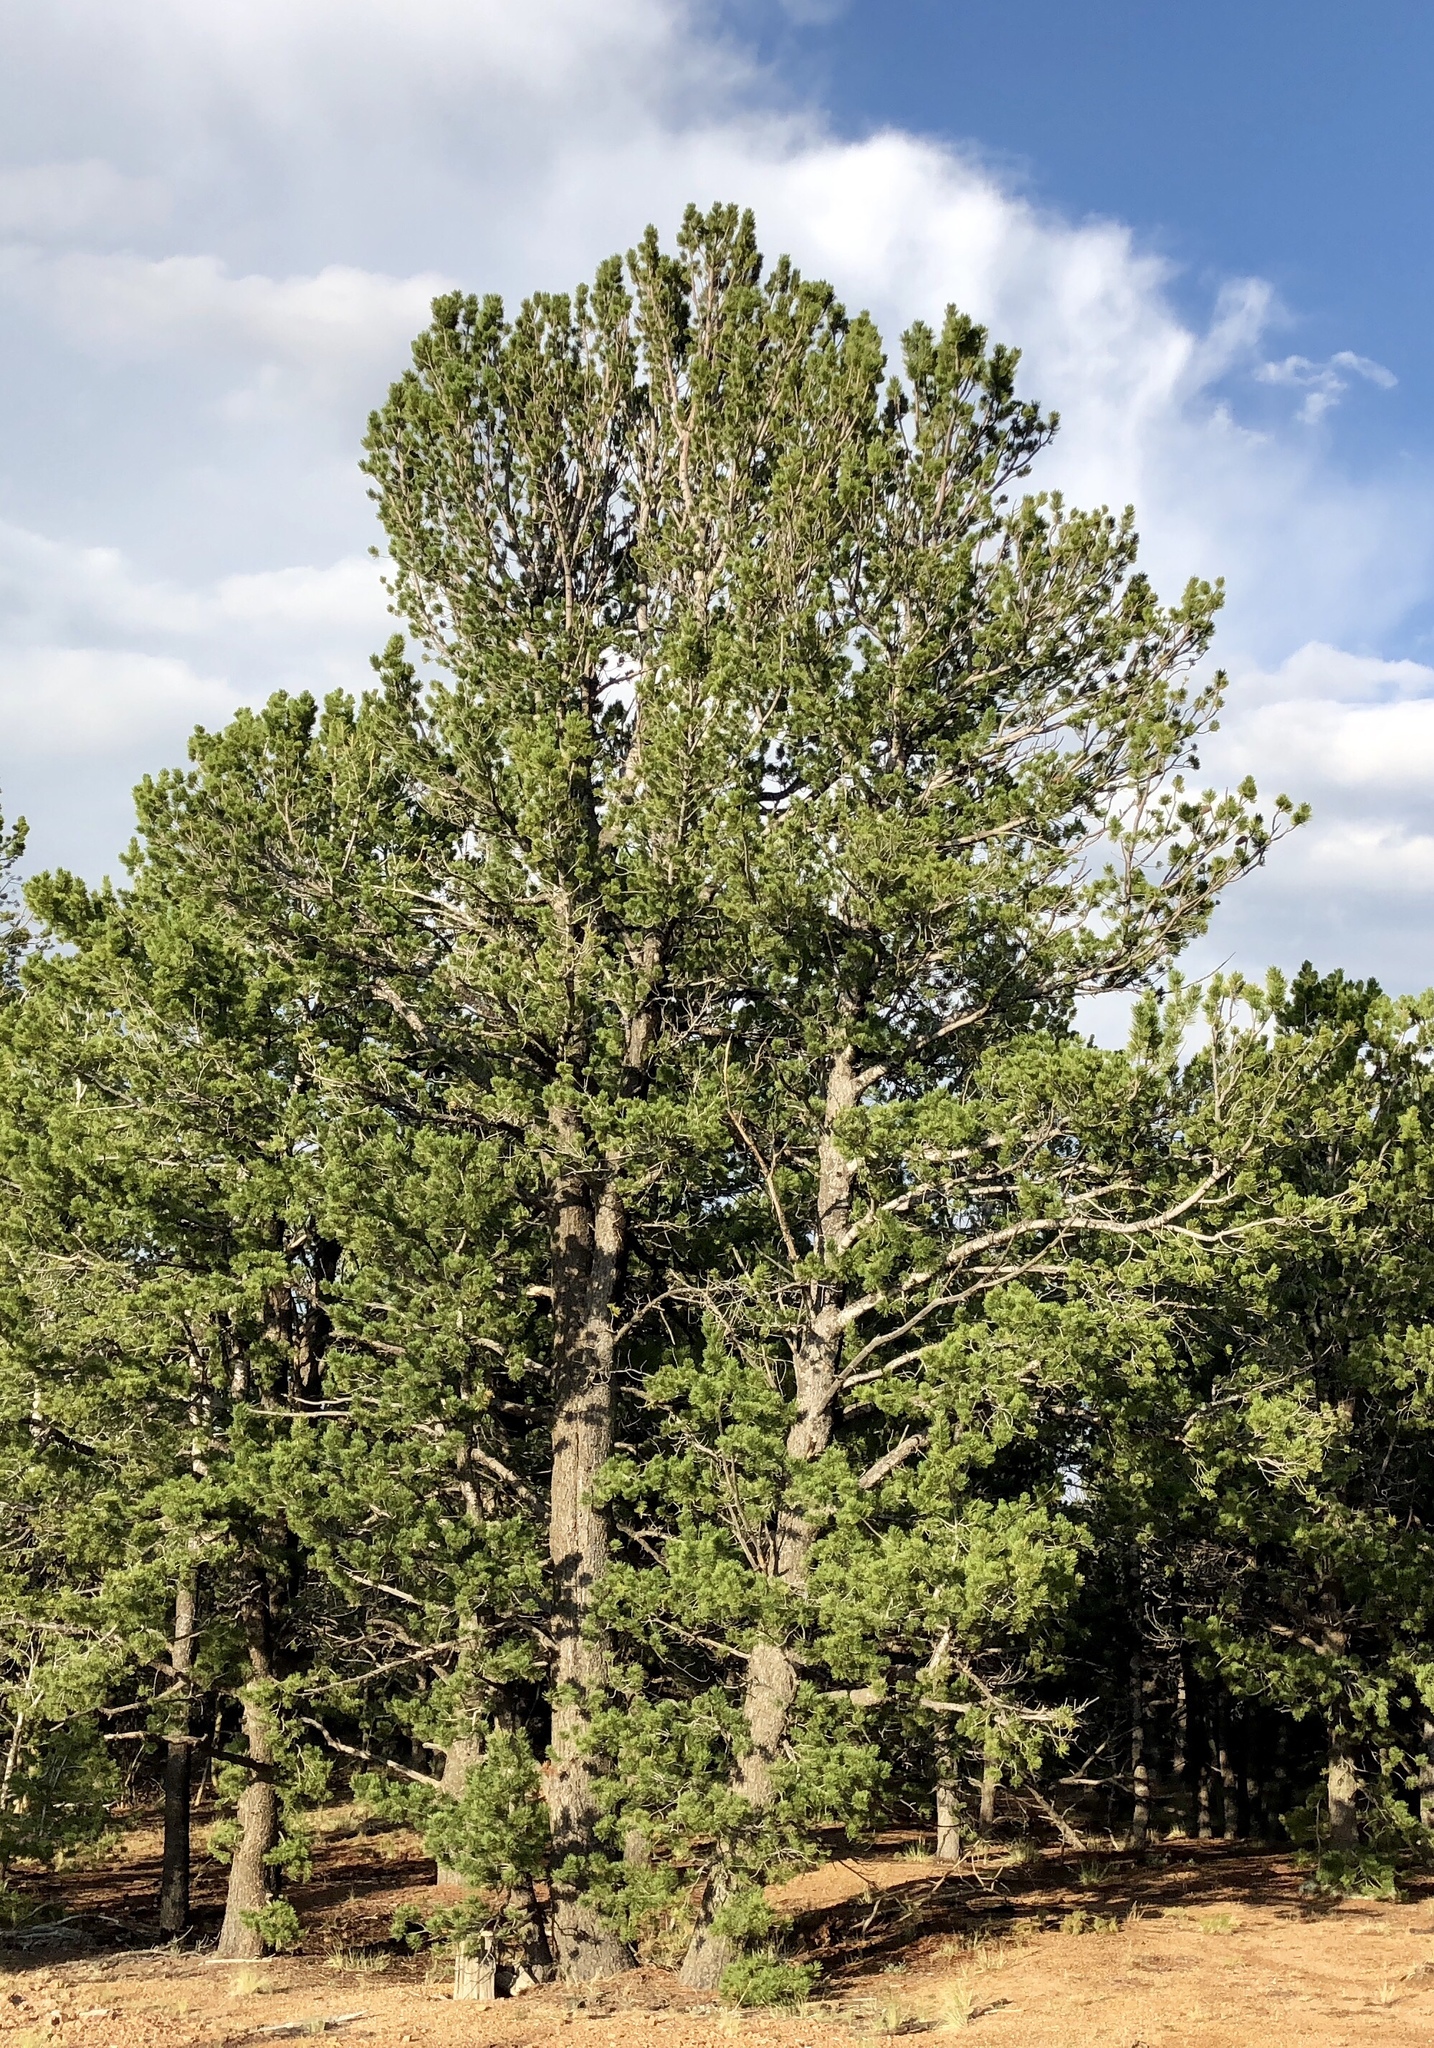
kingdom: Plantae
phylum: Tracheophyta
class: Pinopsida
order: Pinales
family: Pinaceae
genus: Pinus
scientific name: Pinus flexilis
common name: Limber pine
